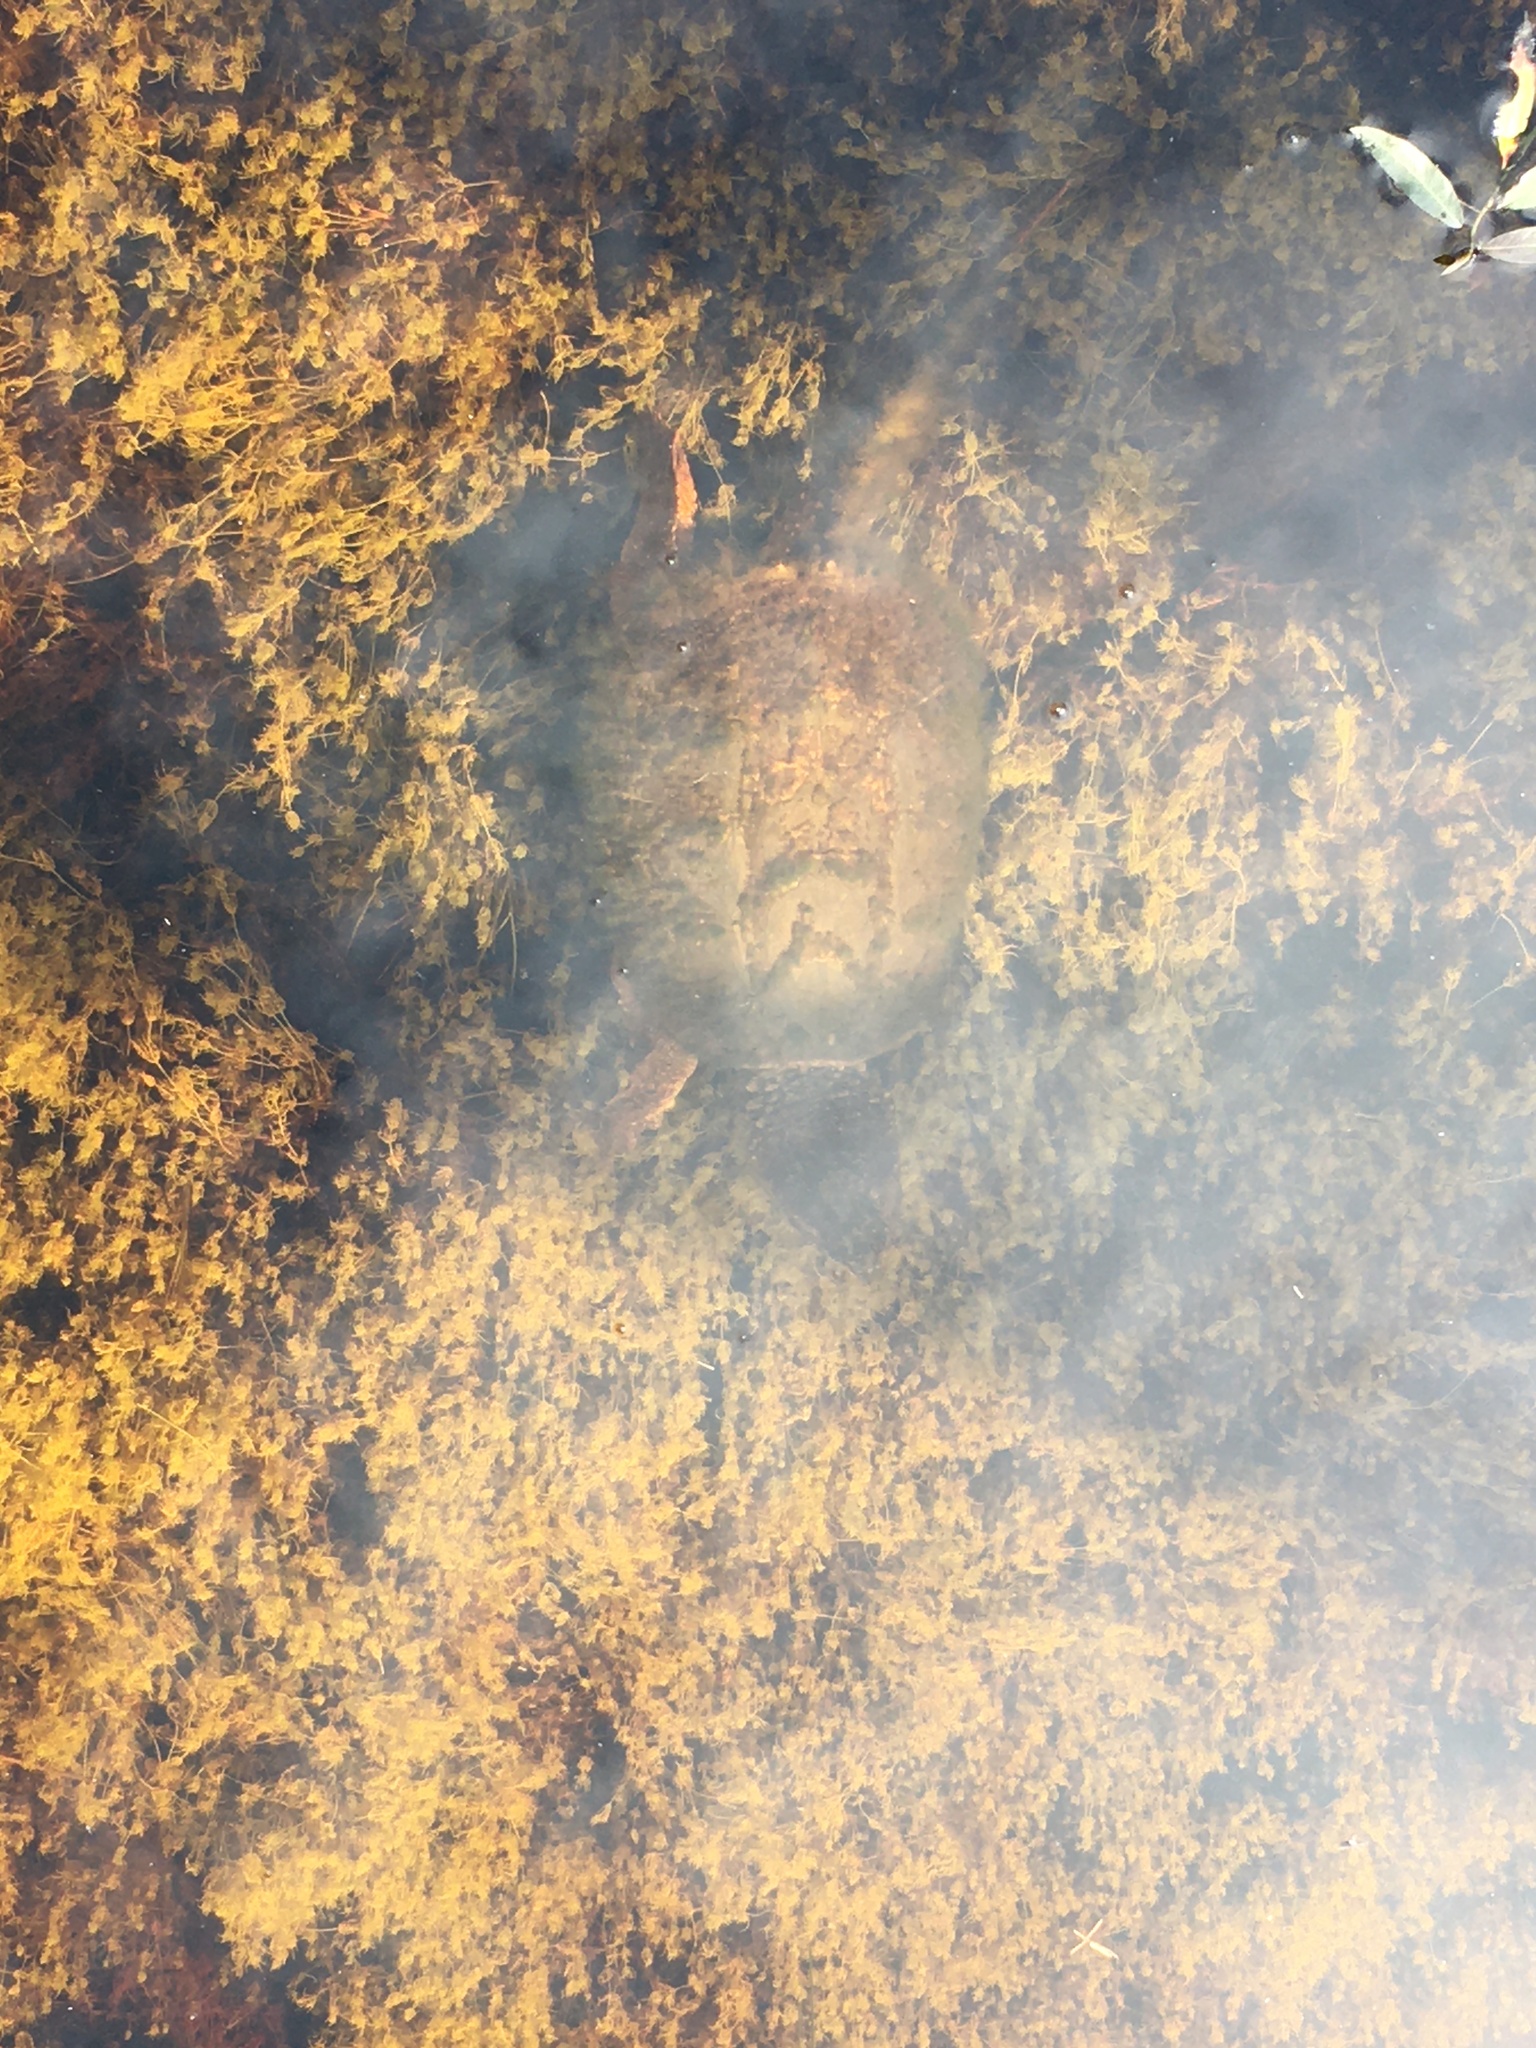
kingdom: Animalia
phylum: Chordata
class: Testudines
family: Chelydridae
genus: Chelydra
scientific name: Chelydra serpentina
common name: Common snapping turtle
